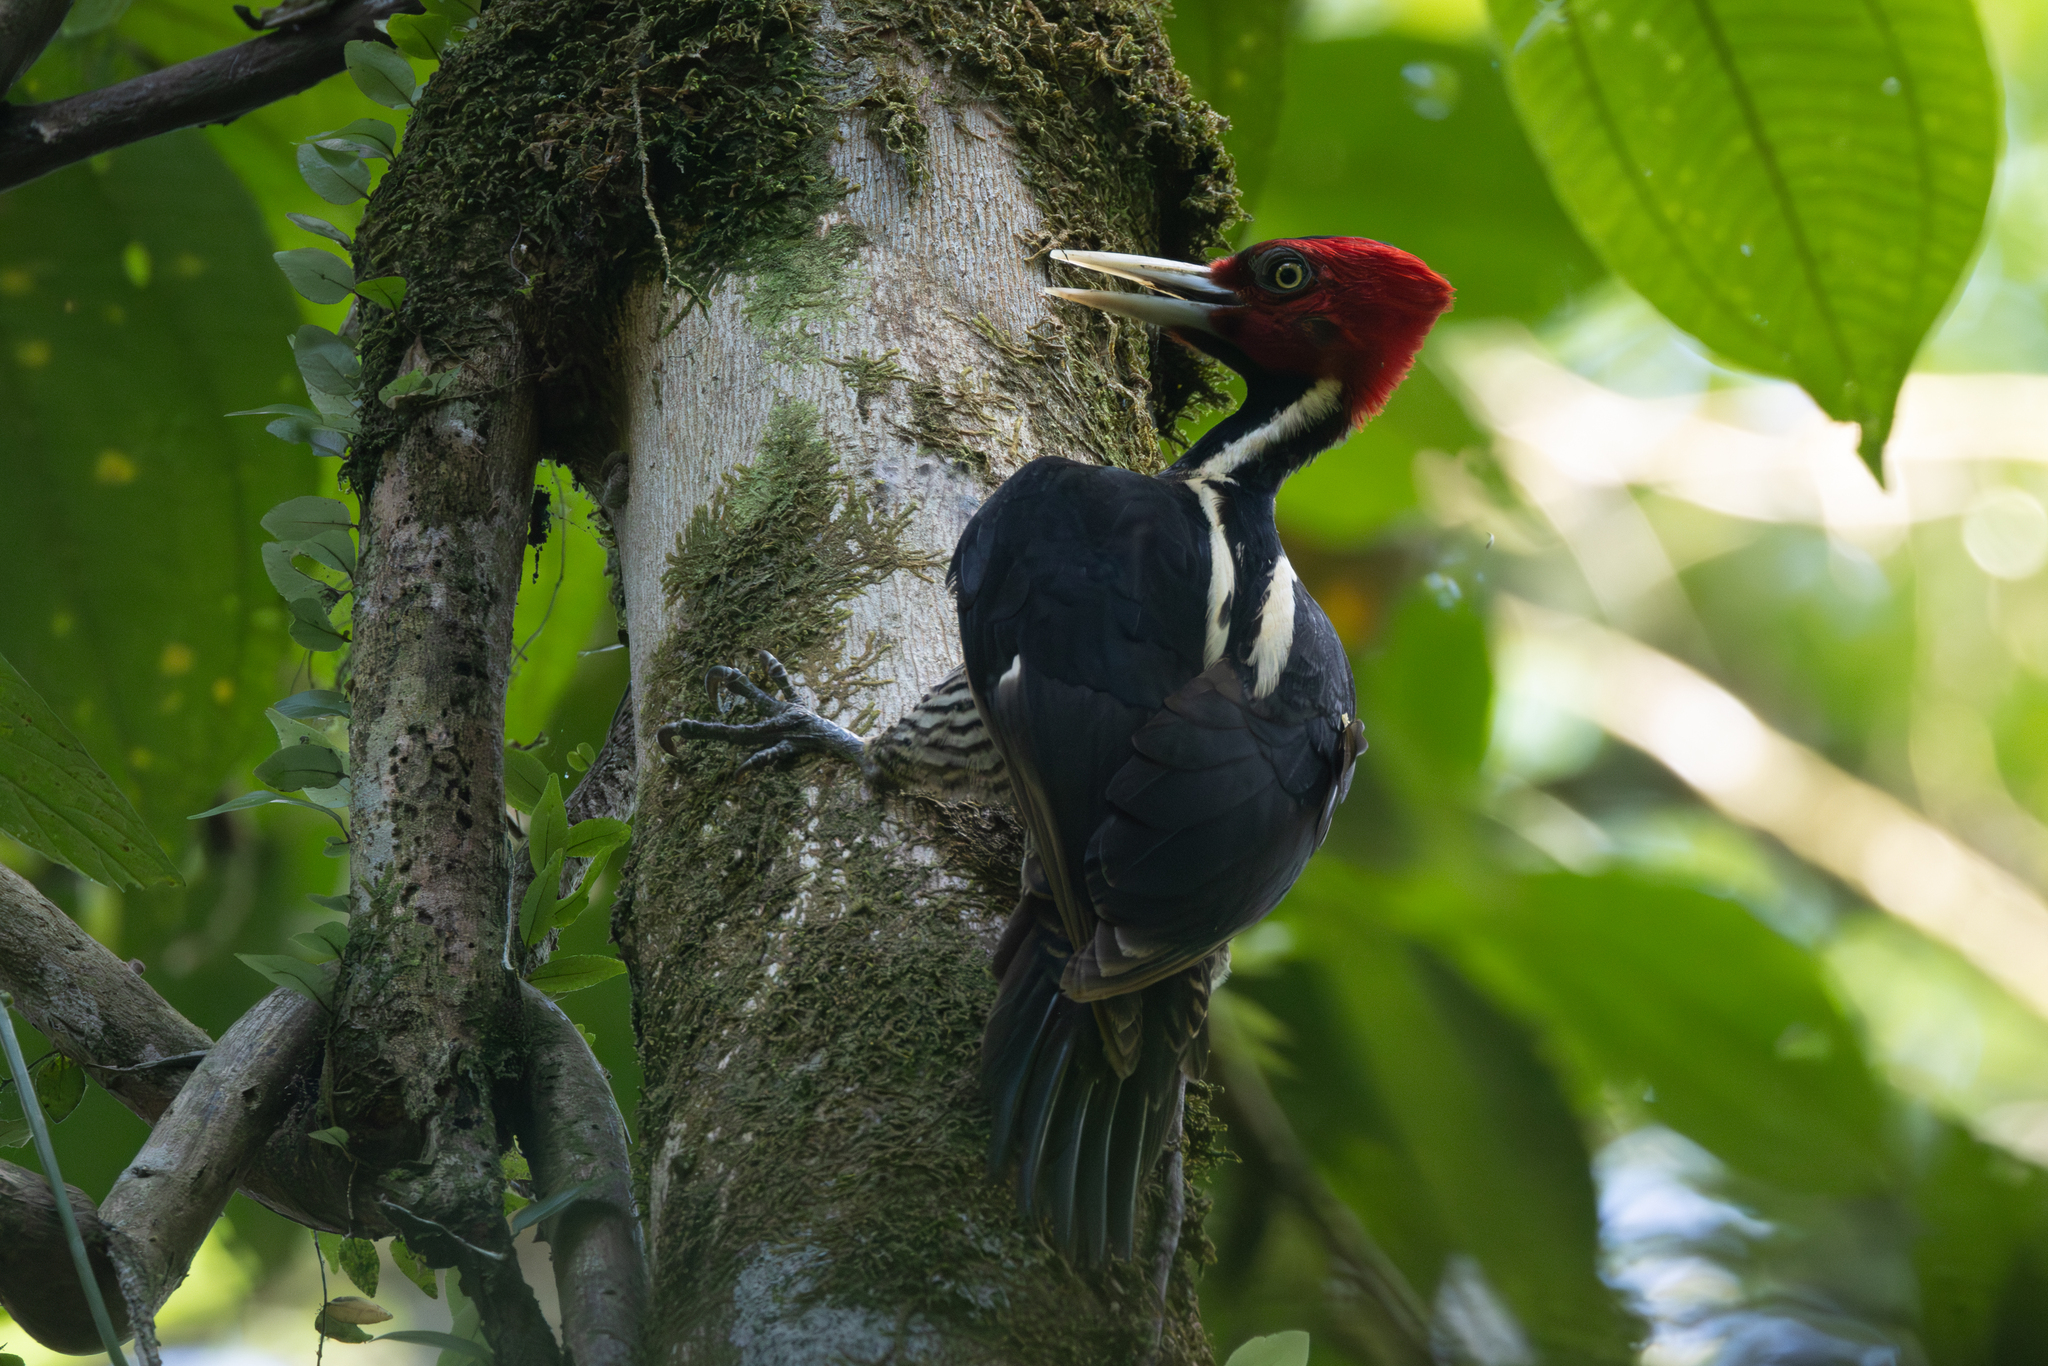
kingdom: Animalia
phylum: Chordata
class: Aves
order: Piciformes
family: Picidae
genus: Campephilus
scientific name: Campephilus guatemalensis
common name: Pale-billed woodpecker
